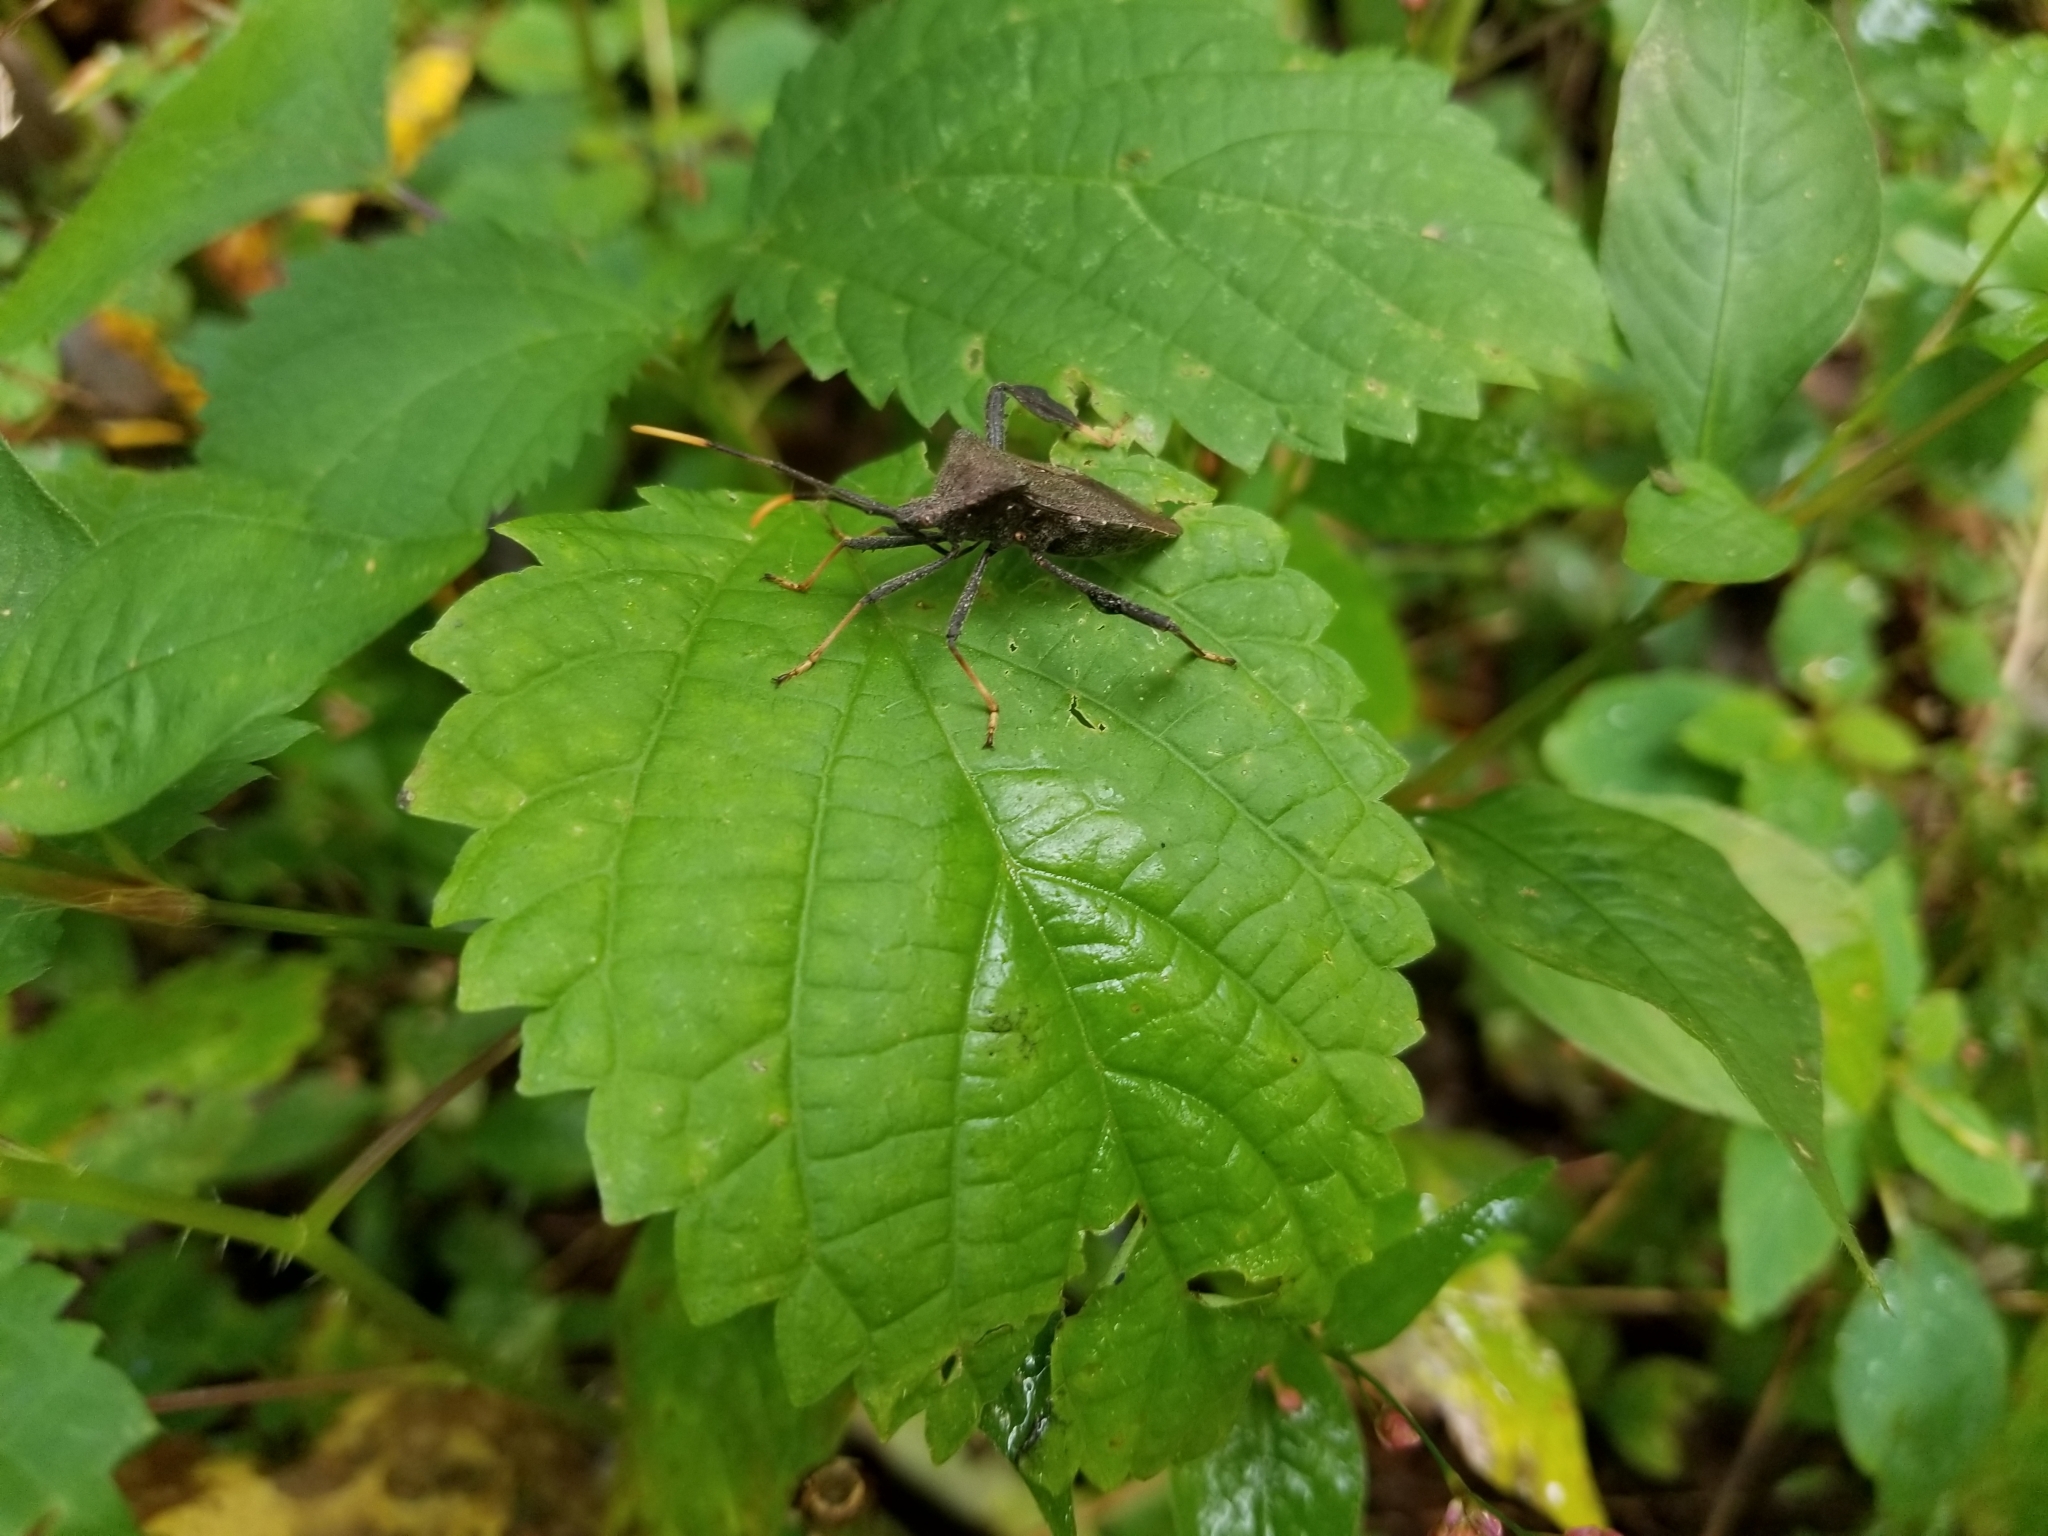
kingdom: Animalia
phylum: Arthropoda
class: Insecta
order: Hemiptera
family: Coreidae
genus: Acanthocephala
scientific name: Acanthocephala terminalis
